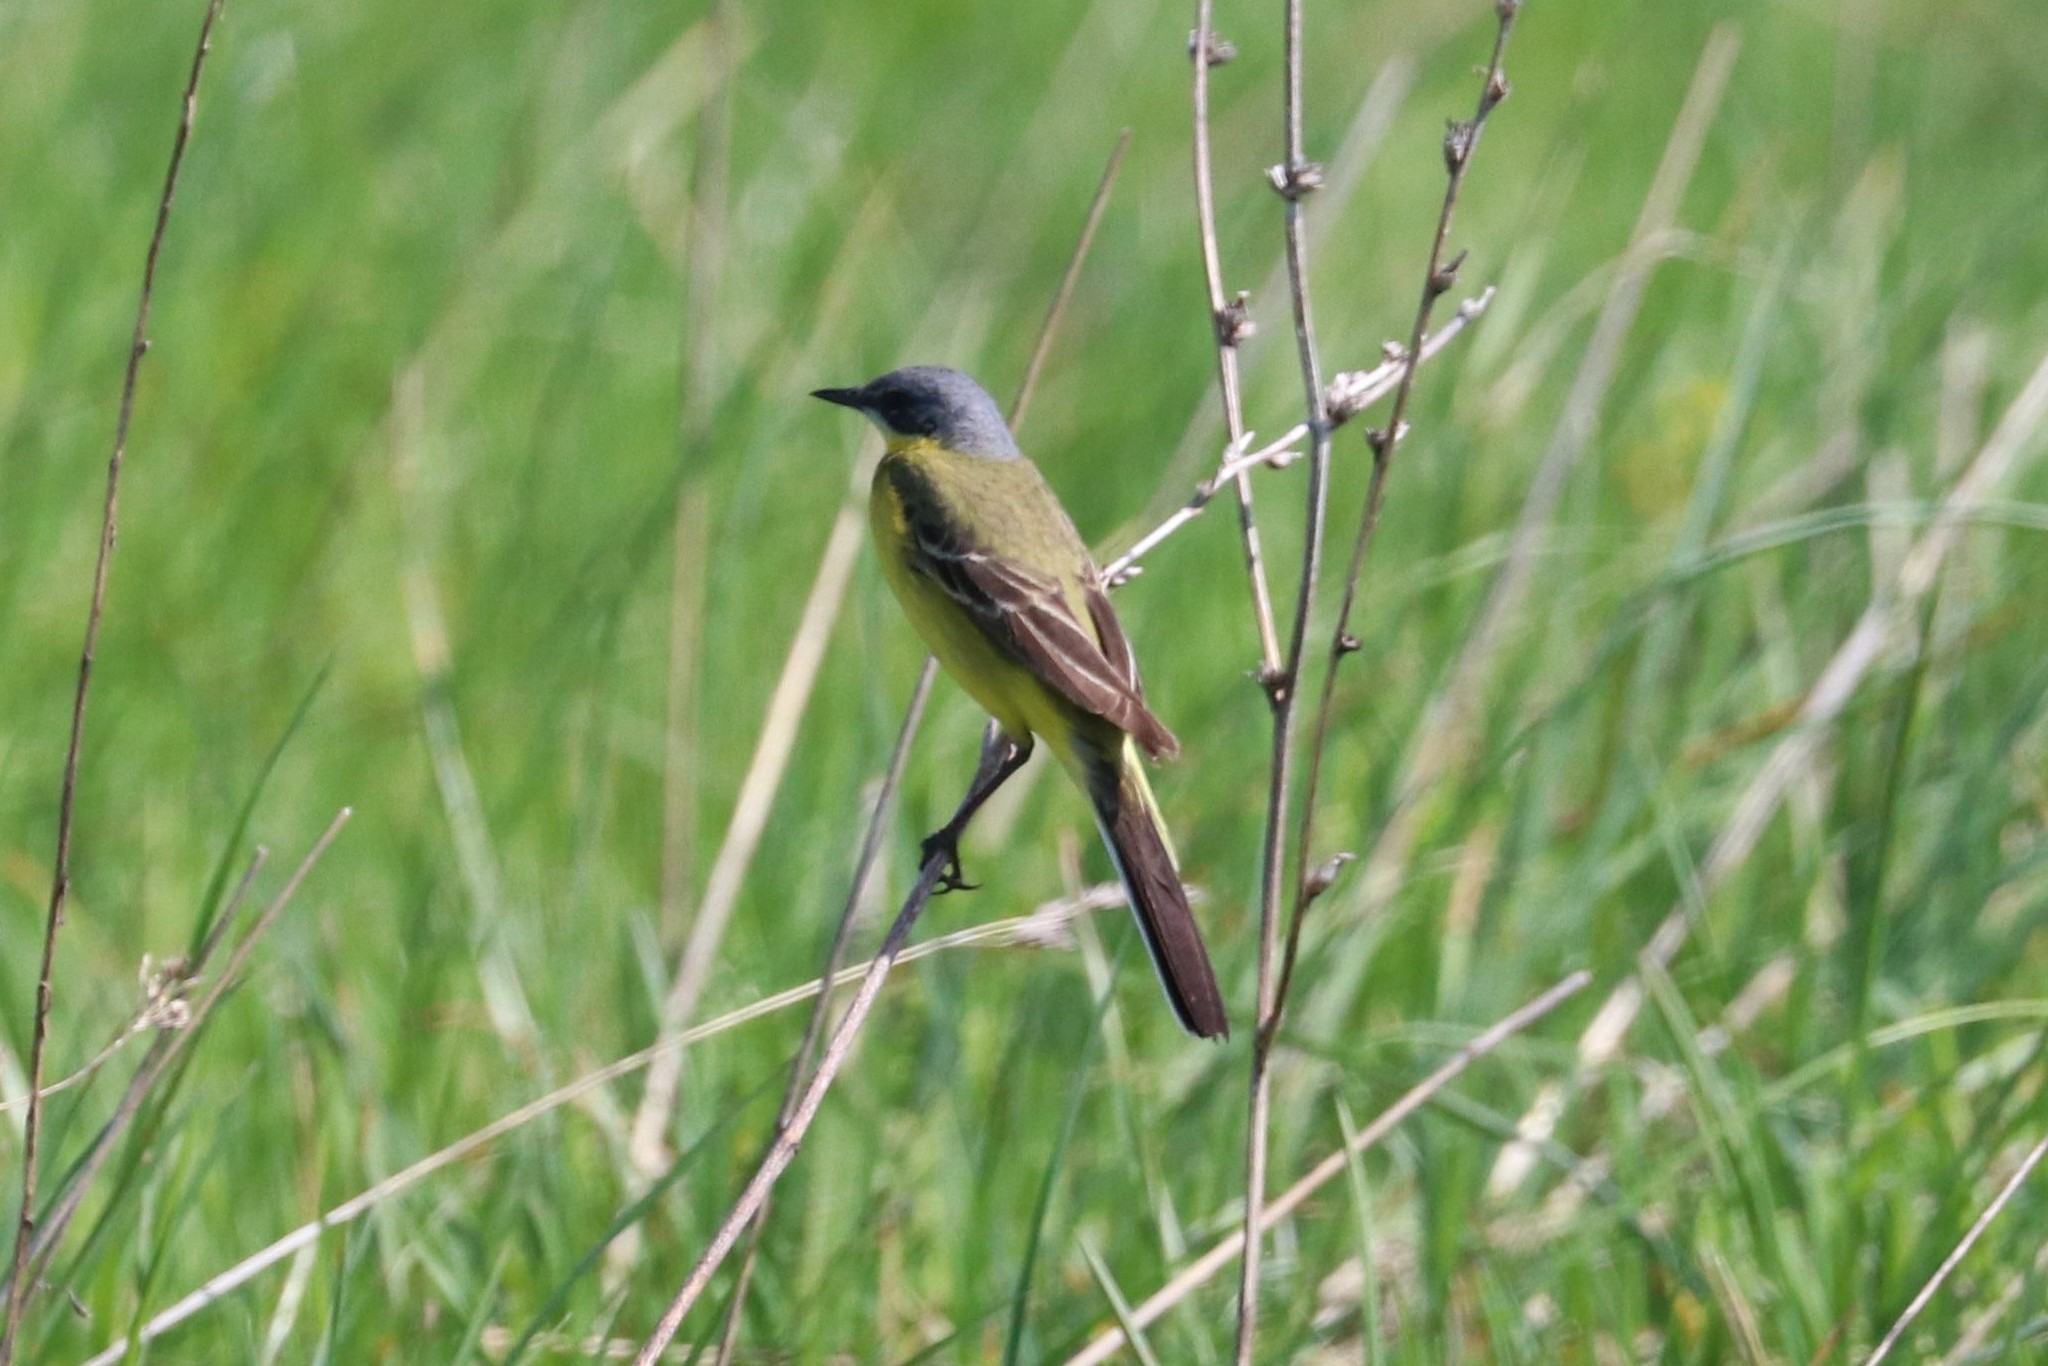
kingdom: Animalia
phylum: Chordata
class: Aves
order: Passeriformes
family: Motacillidae
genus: Motacilla
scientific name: Motacilla flava
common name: Western yellow wagtail
